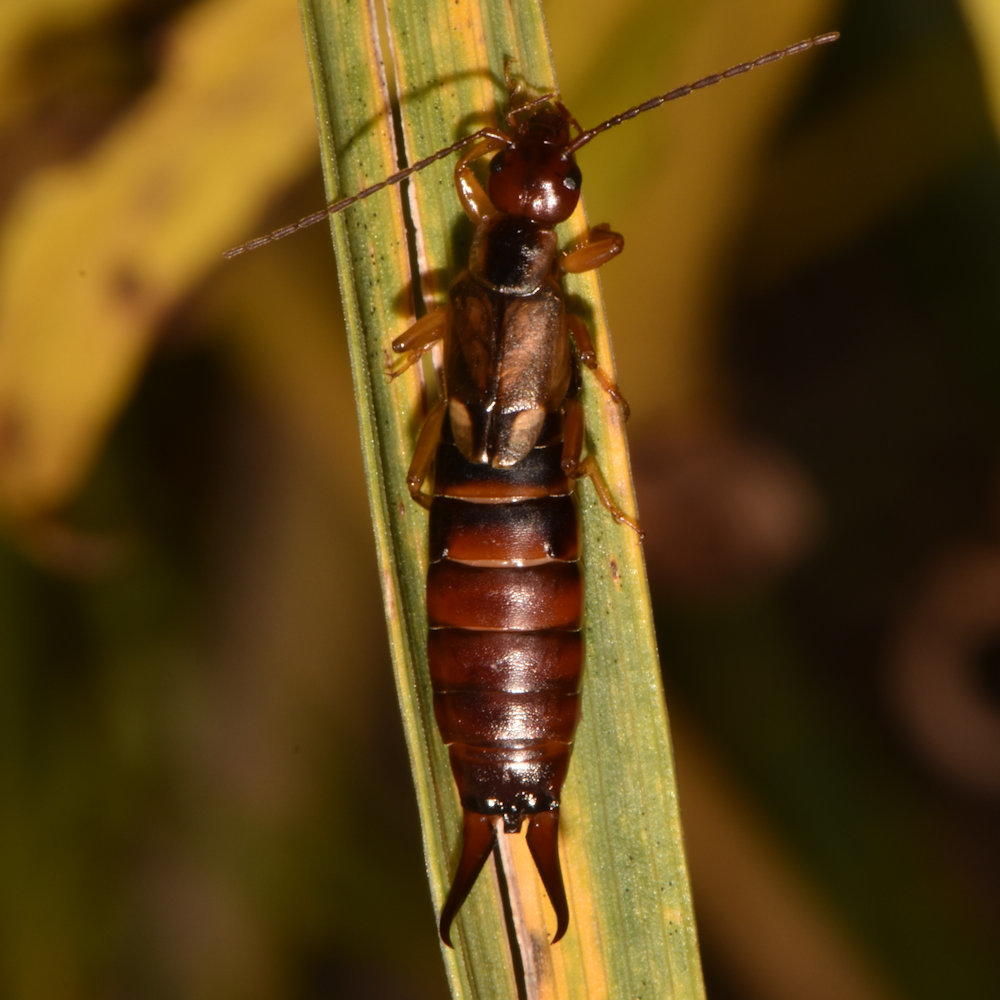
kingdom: Animalia
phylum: Arthropoda
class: Insecta
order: Dermaptera
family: Forficulidae
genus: Forficula
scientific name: Forficula
